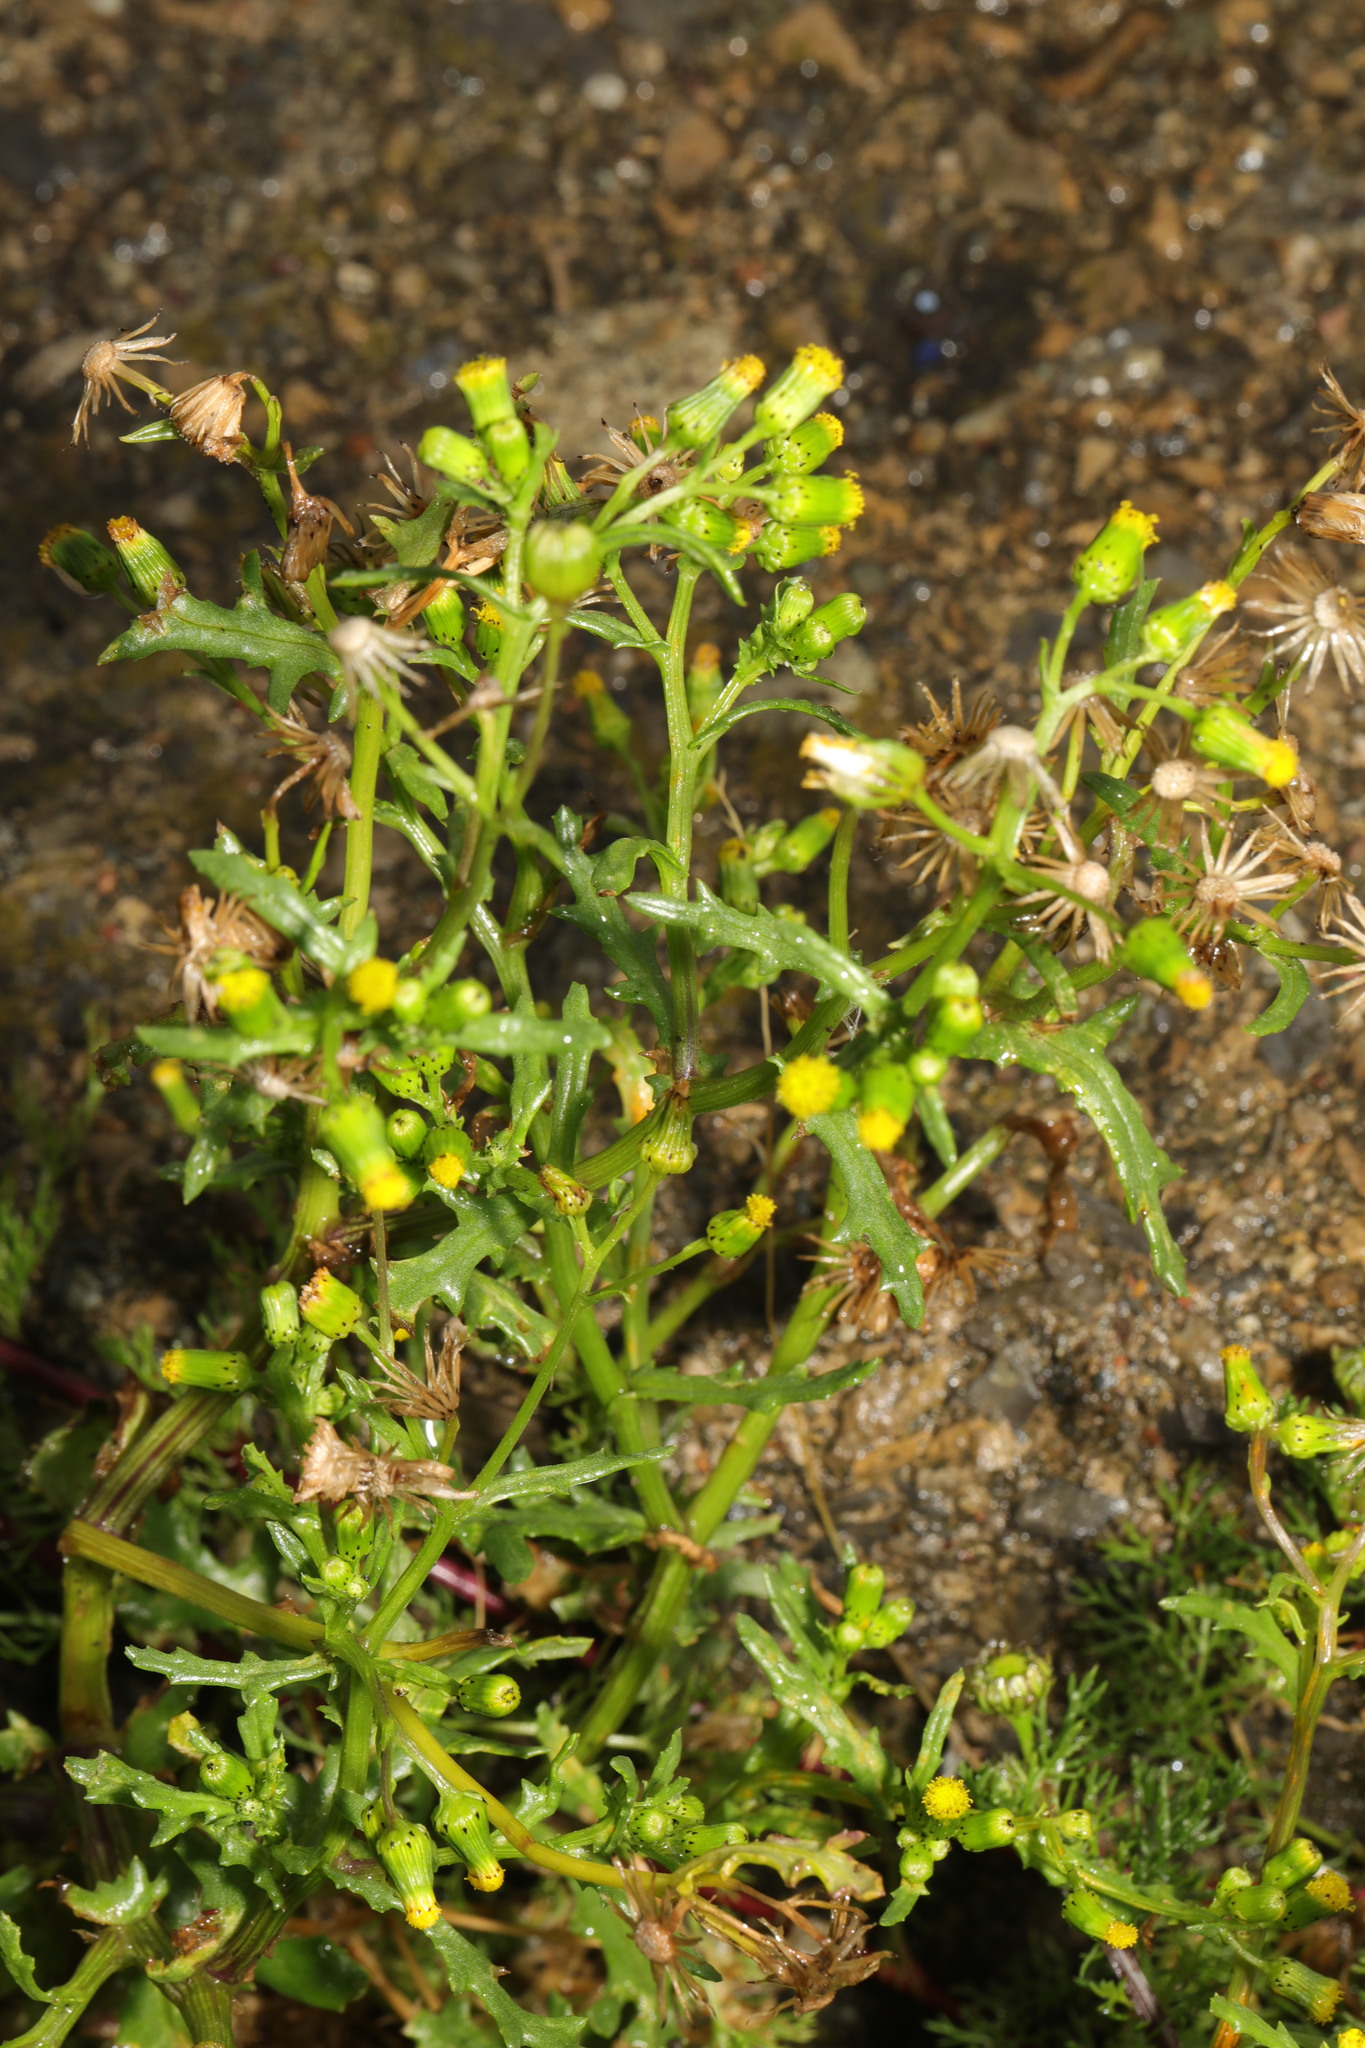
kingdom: Plantae
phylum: Tracheophyta
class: Magnoliopsida
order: Asterales
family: Asteraceae
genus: Senecio
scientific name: Senecio vulgaris
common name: Old-man-in-the-spring
